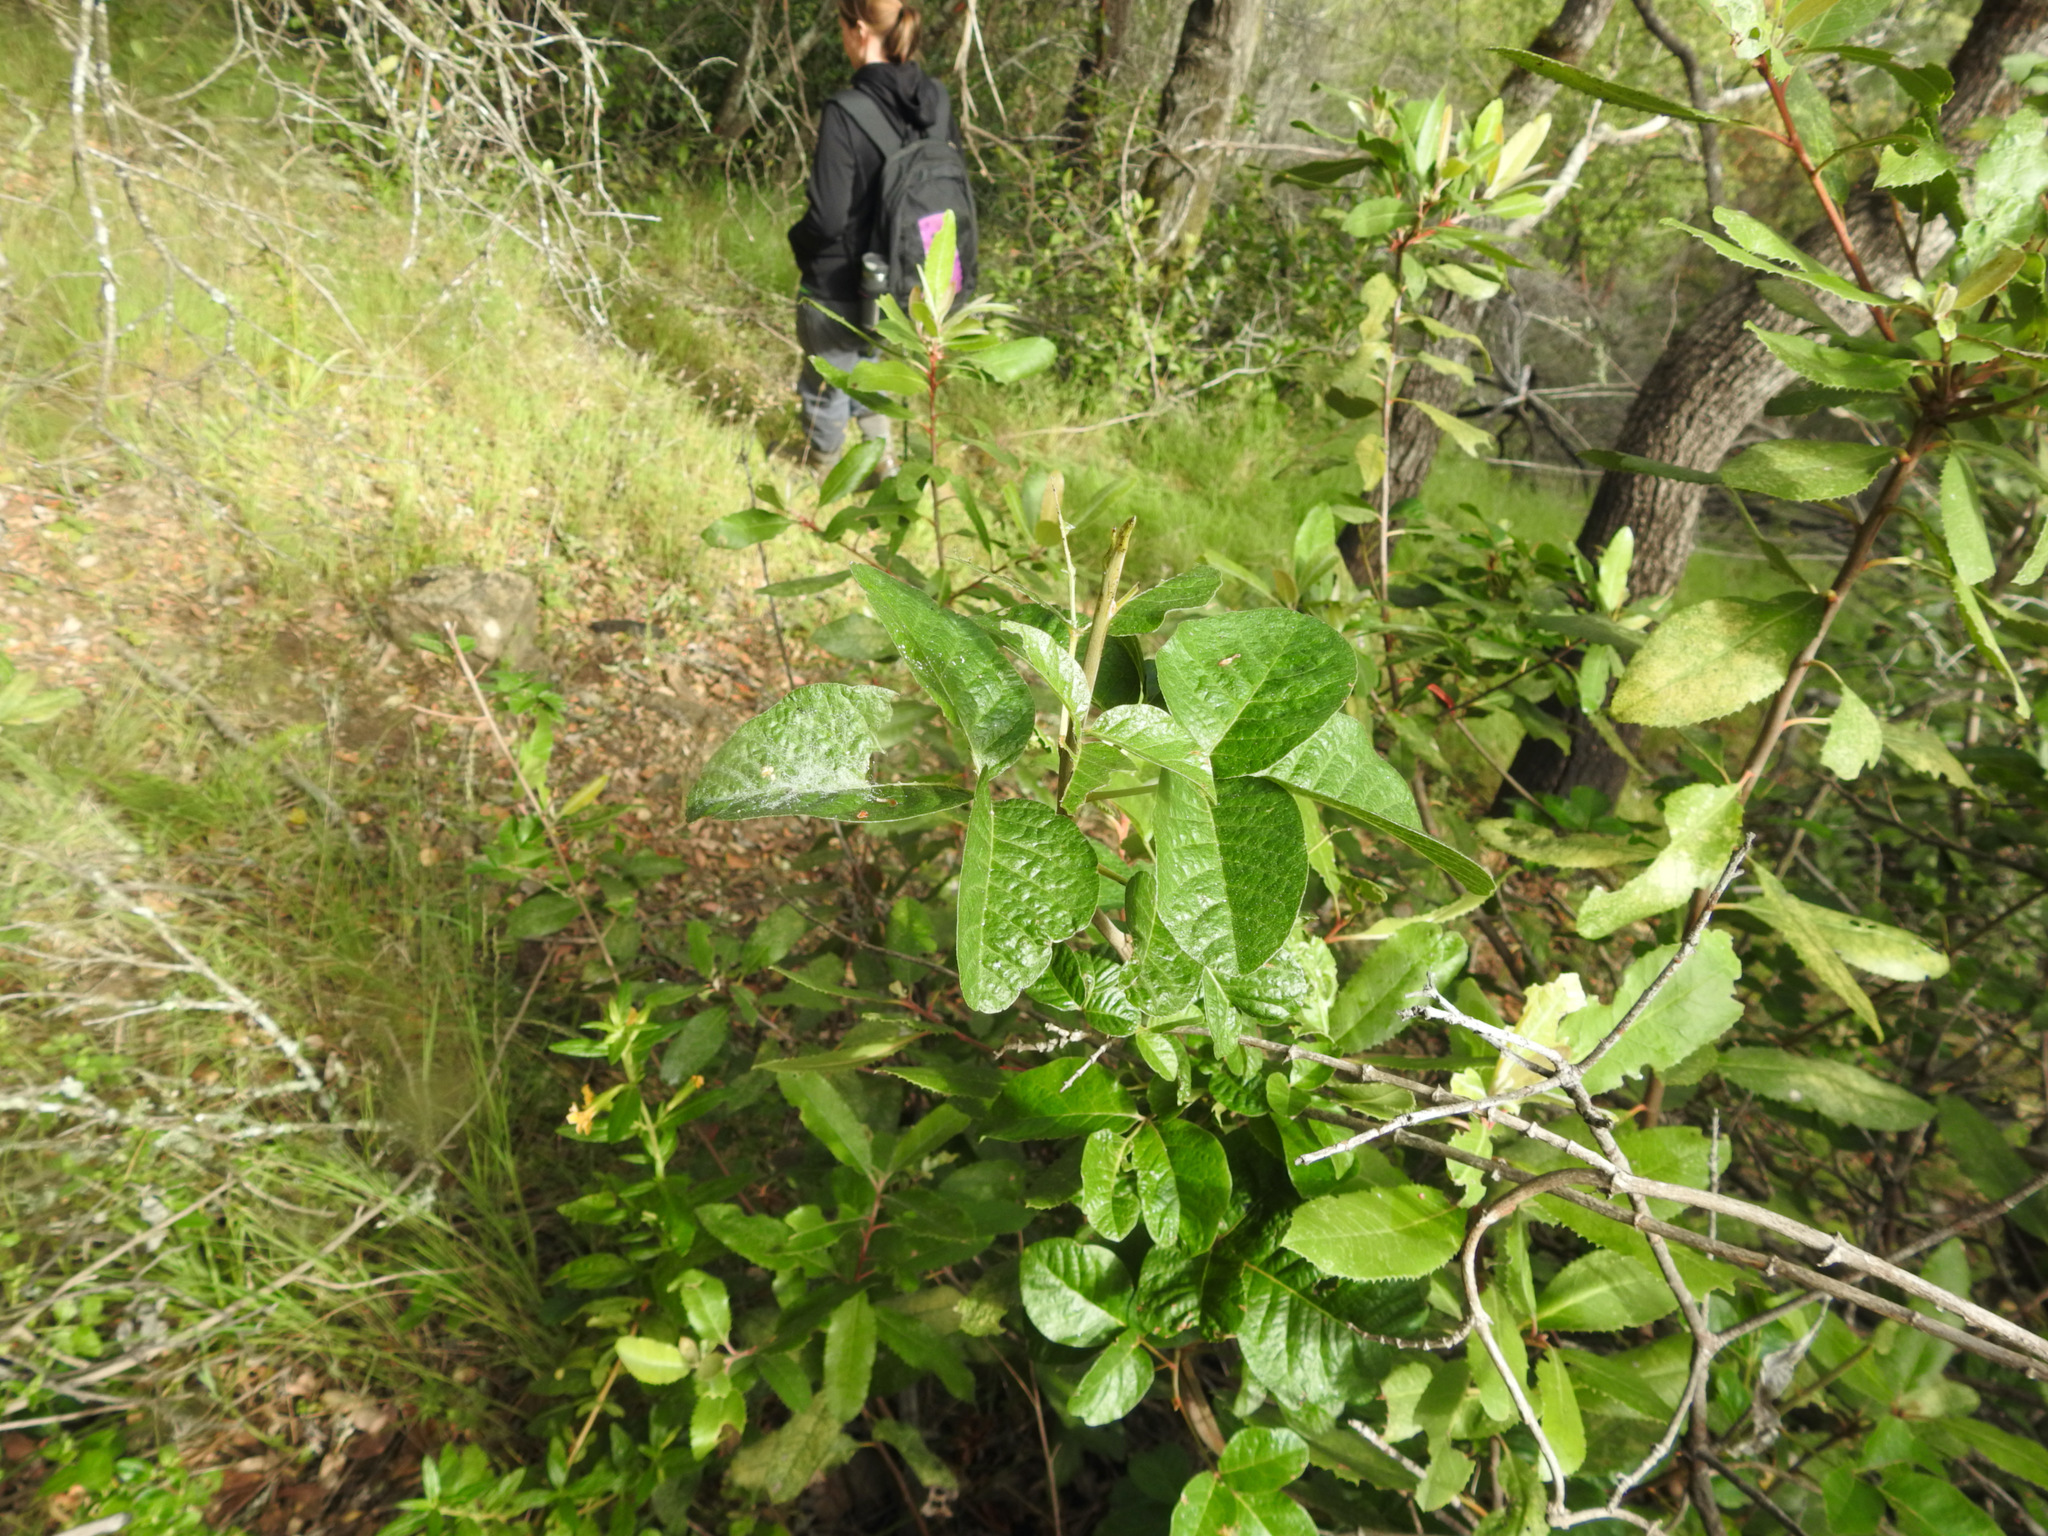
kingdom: Plantae
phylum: Tracheophyta
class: Magnoliopsida
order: Sapindales
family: Anacardiaceae
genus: Toxicodendron
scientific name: Toxicodendron diversilobum
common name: Pacific poison-oak
